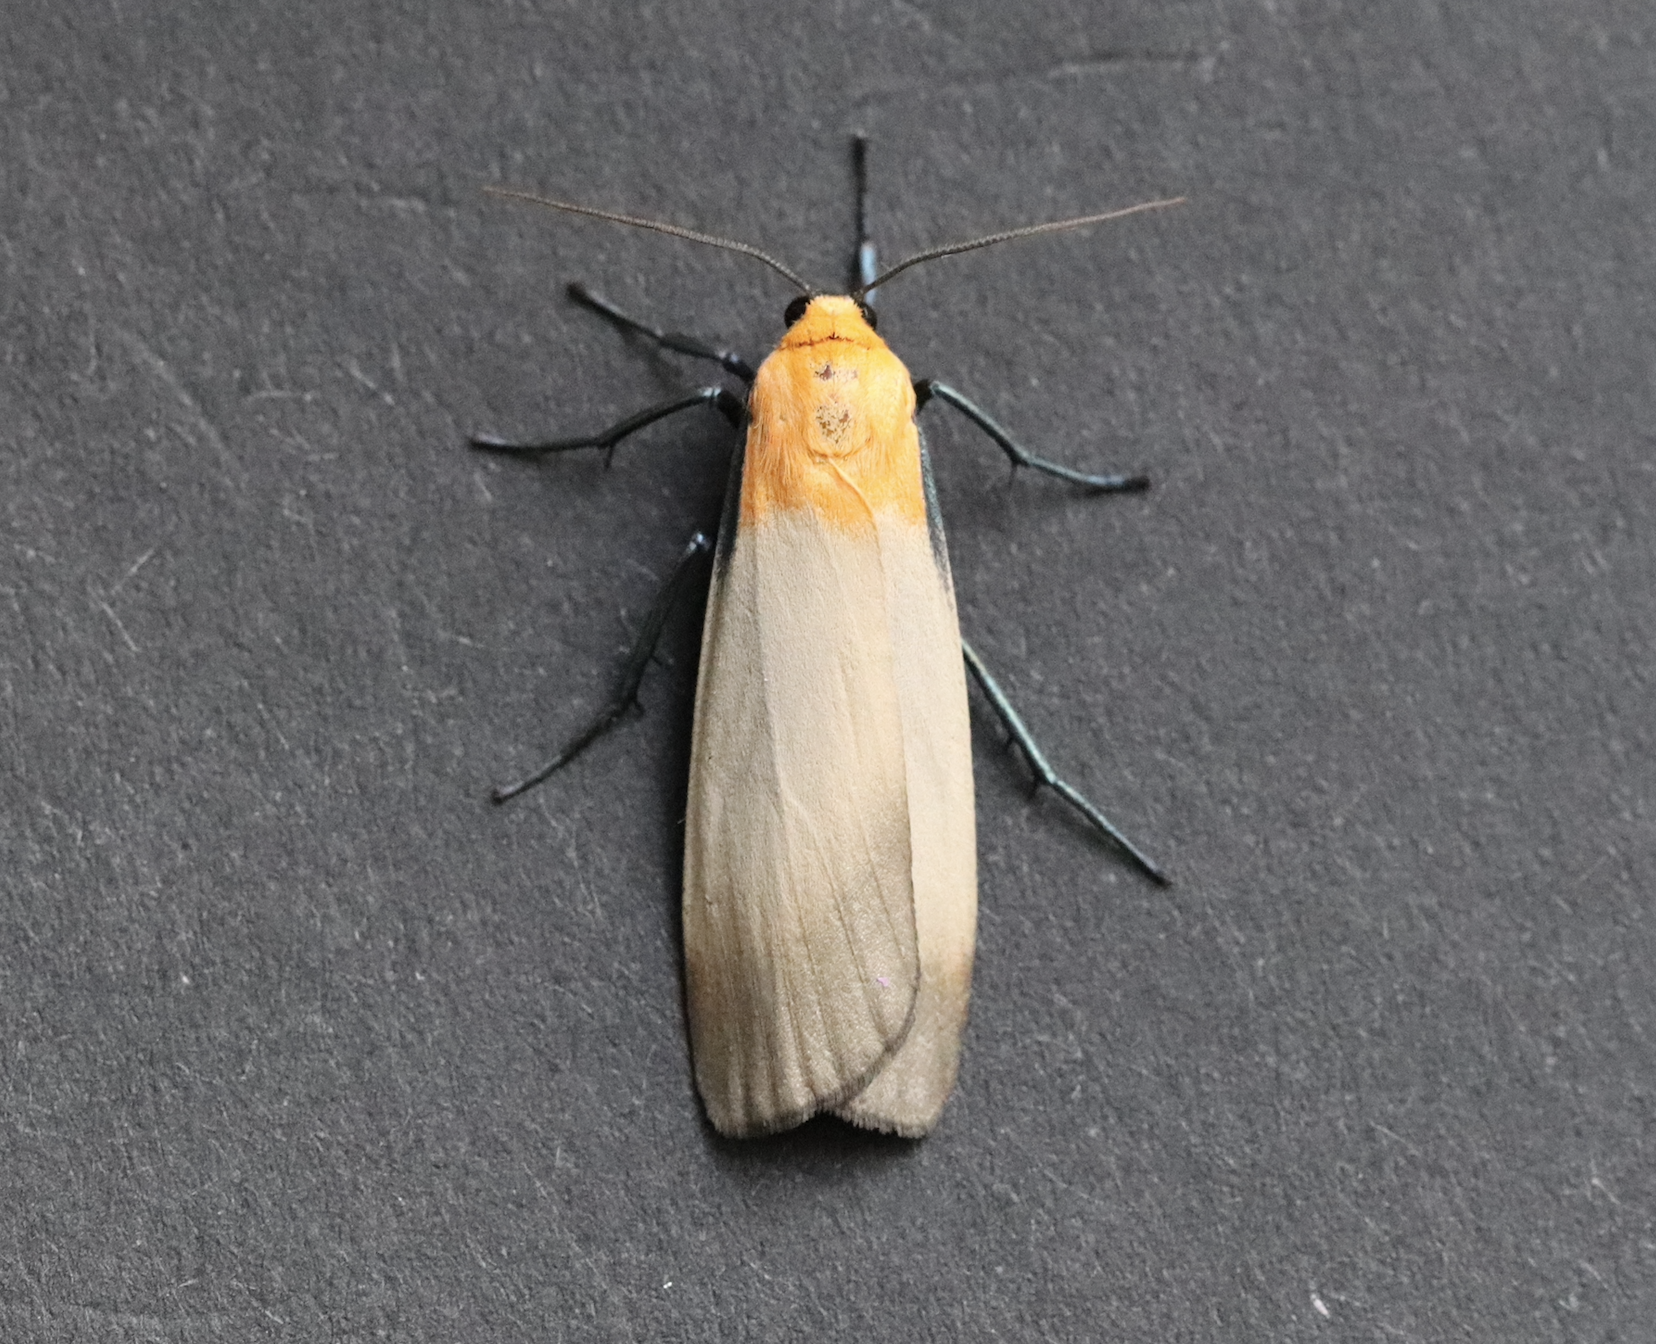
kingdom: Animalia
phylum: Arthropoda
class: Insecta
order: Lepidoptera
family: Erebidae
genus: Lithosia
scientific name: Lithosia quadra
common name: Four-spotted footman
